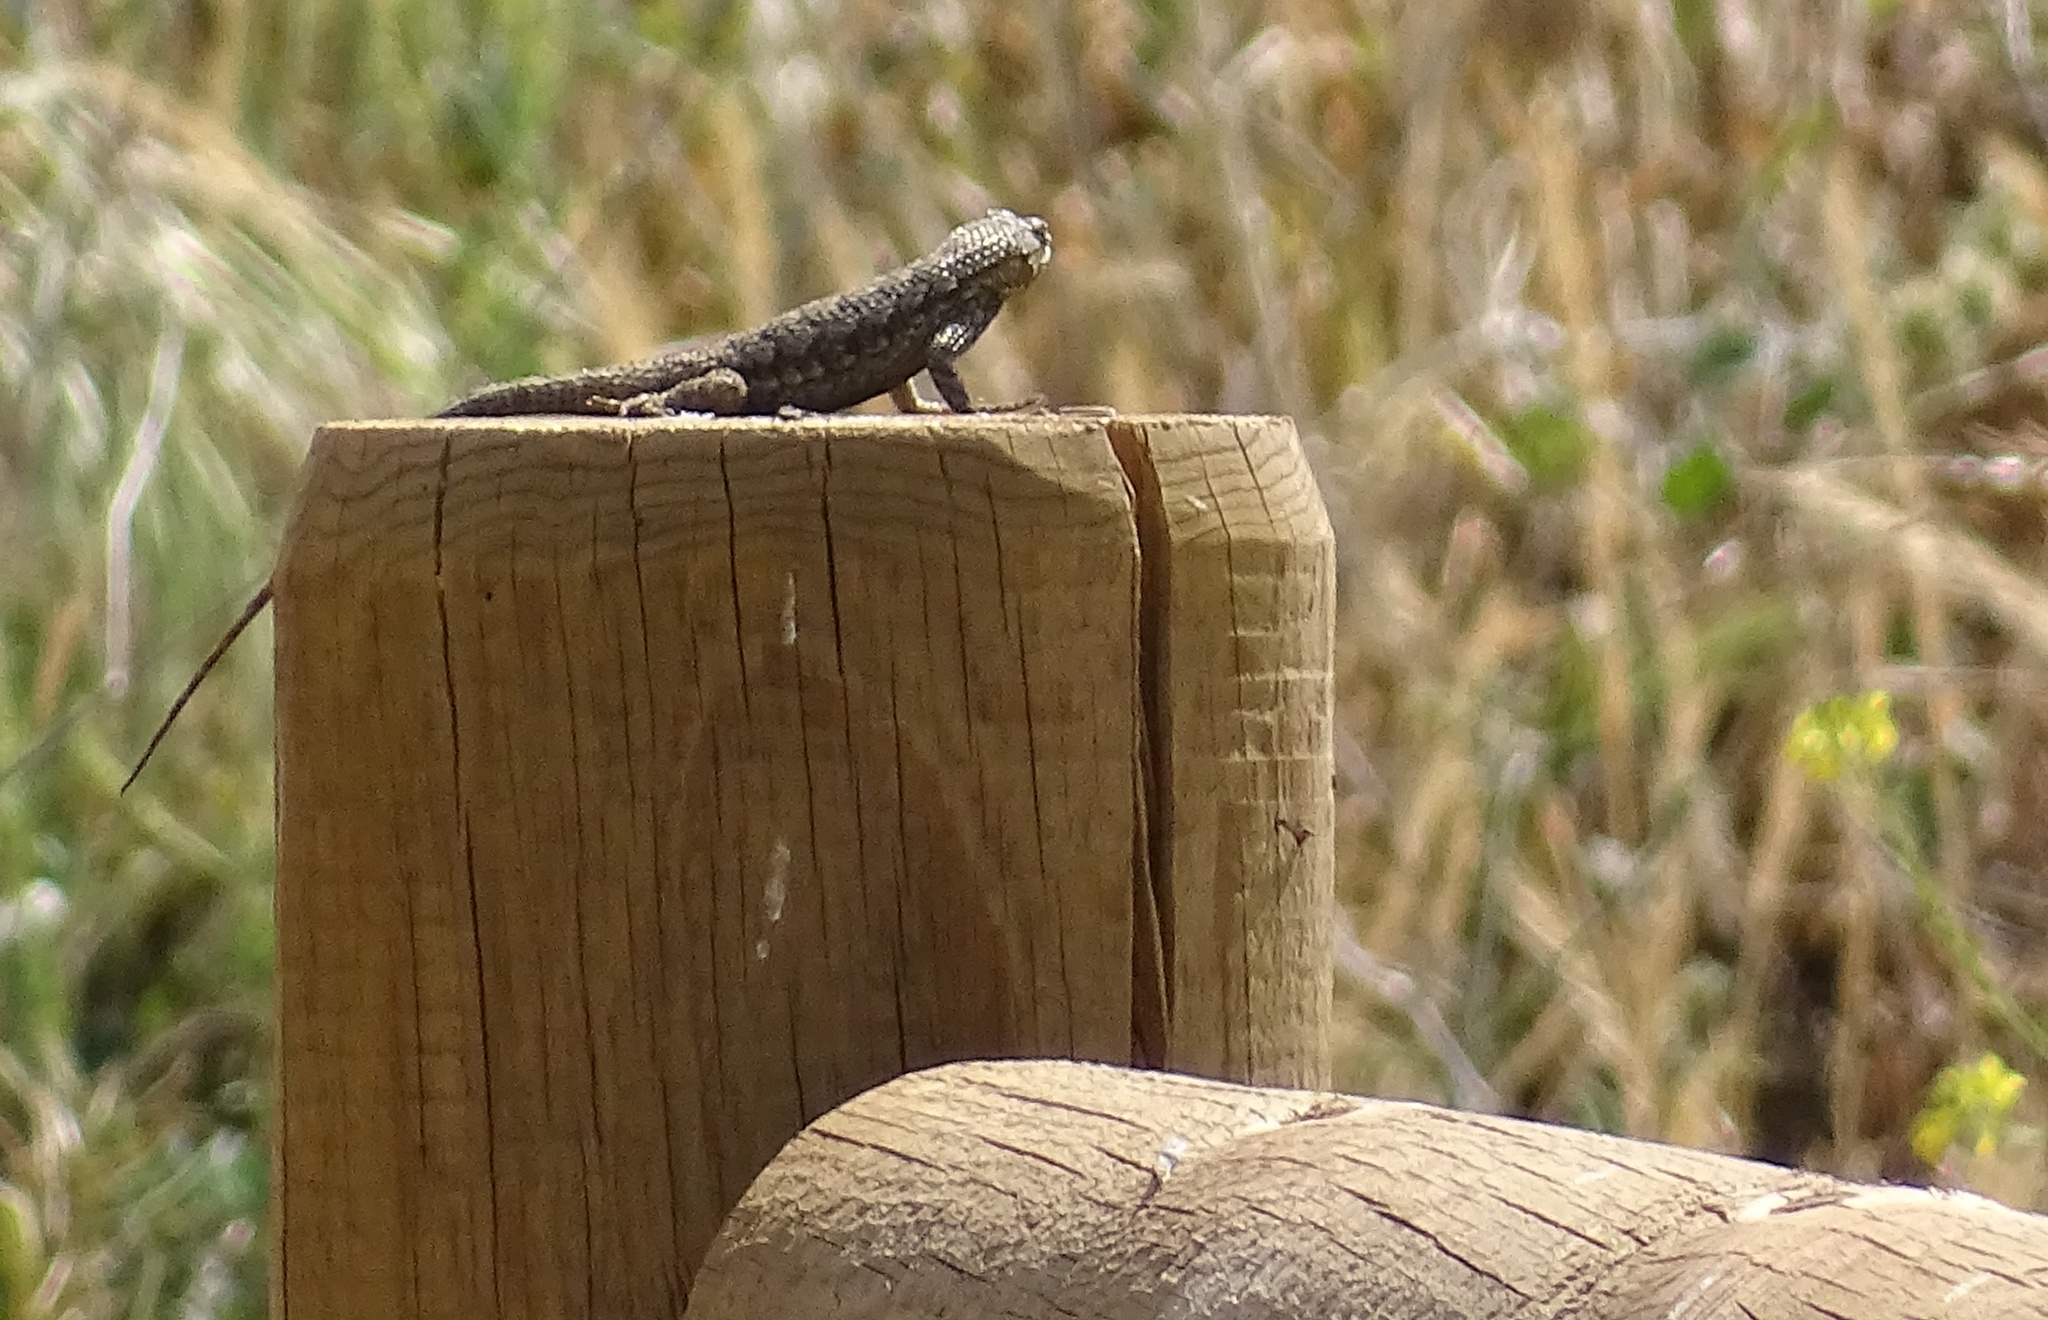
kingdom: Animalia
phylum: Chordata
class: Squamata
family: Phrynosomatidae
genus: Sceloporus
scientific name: Sceloporus occidentalis
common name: Western fence lizard
